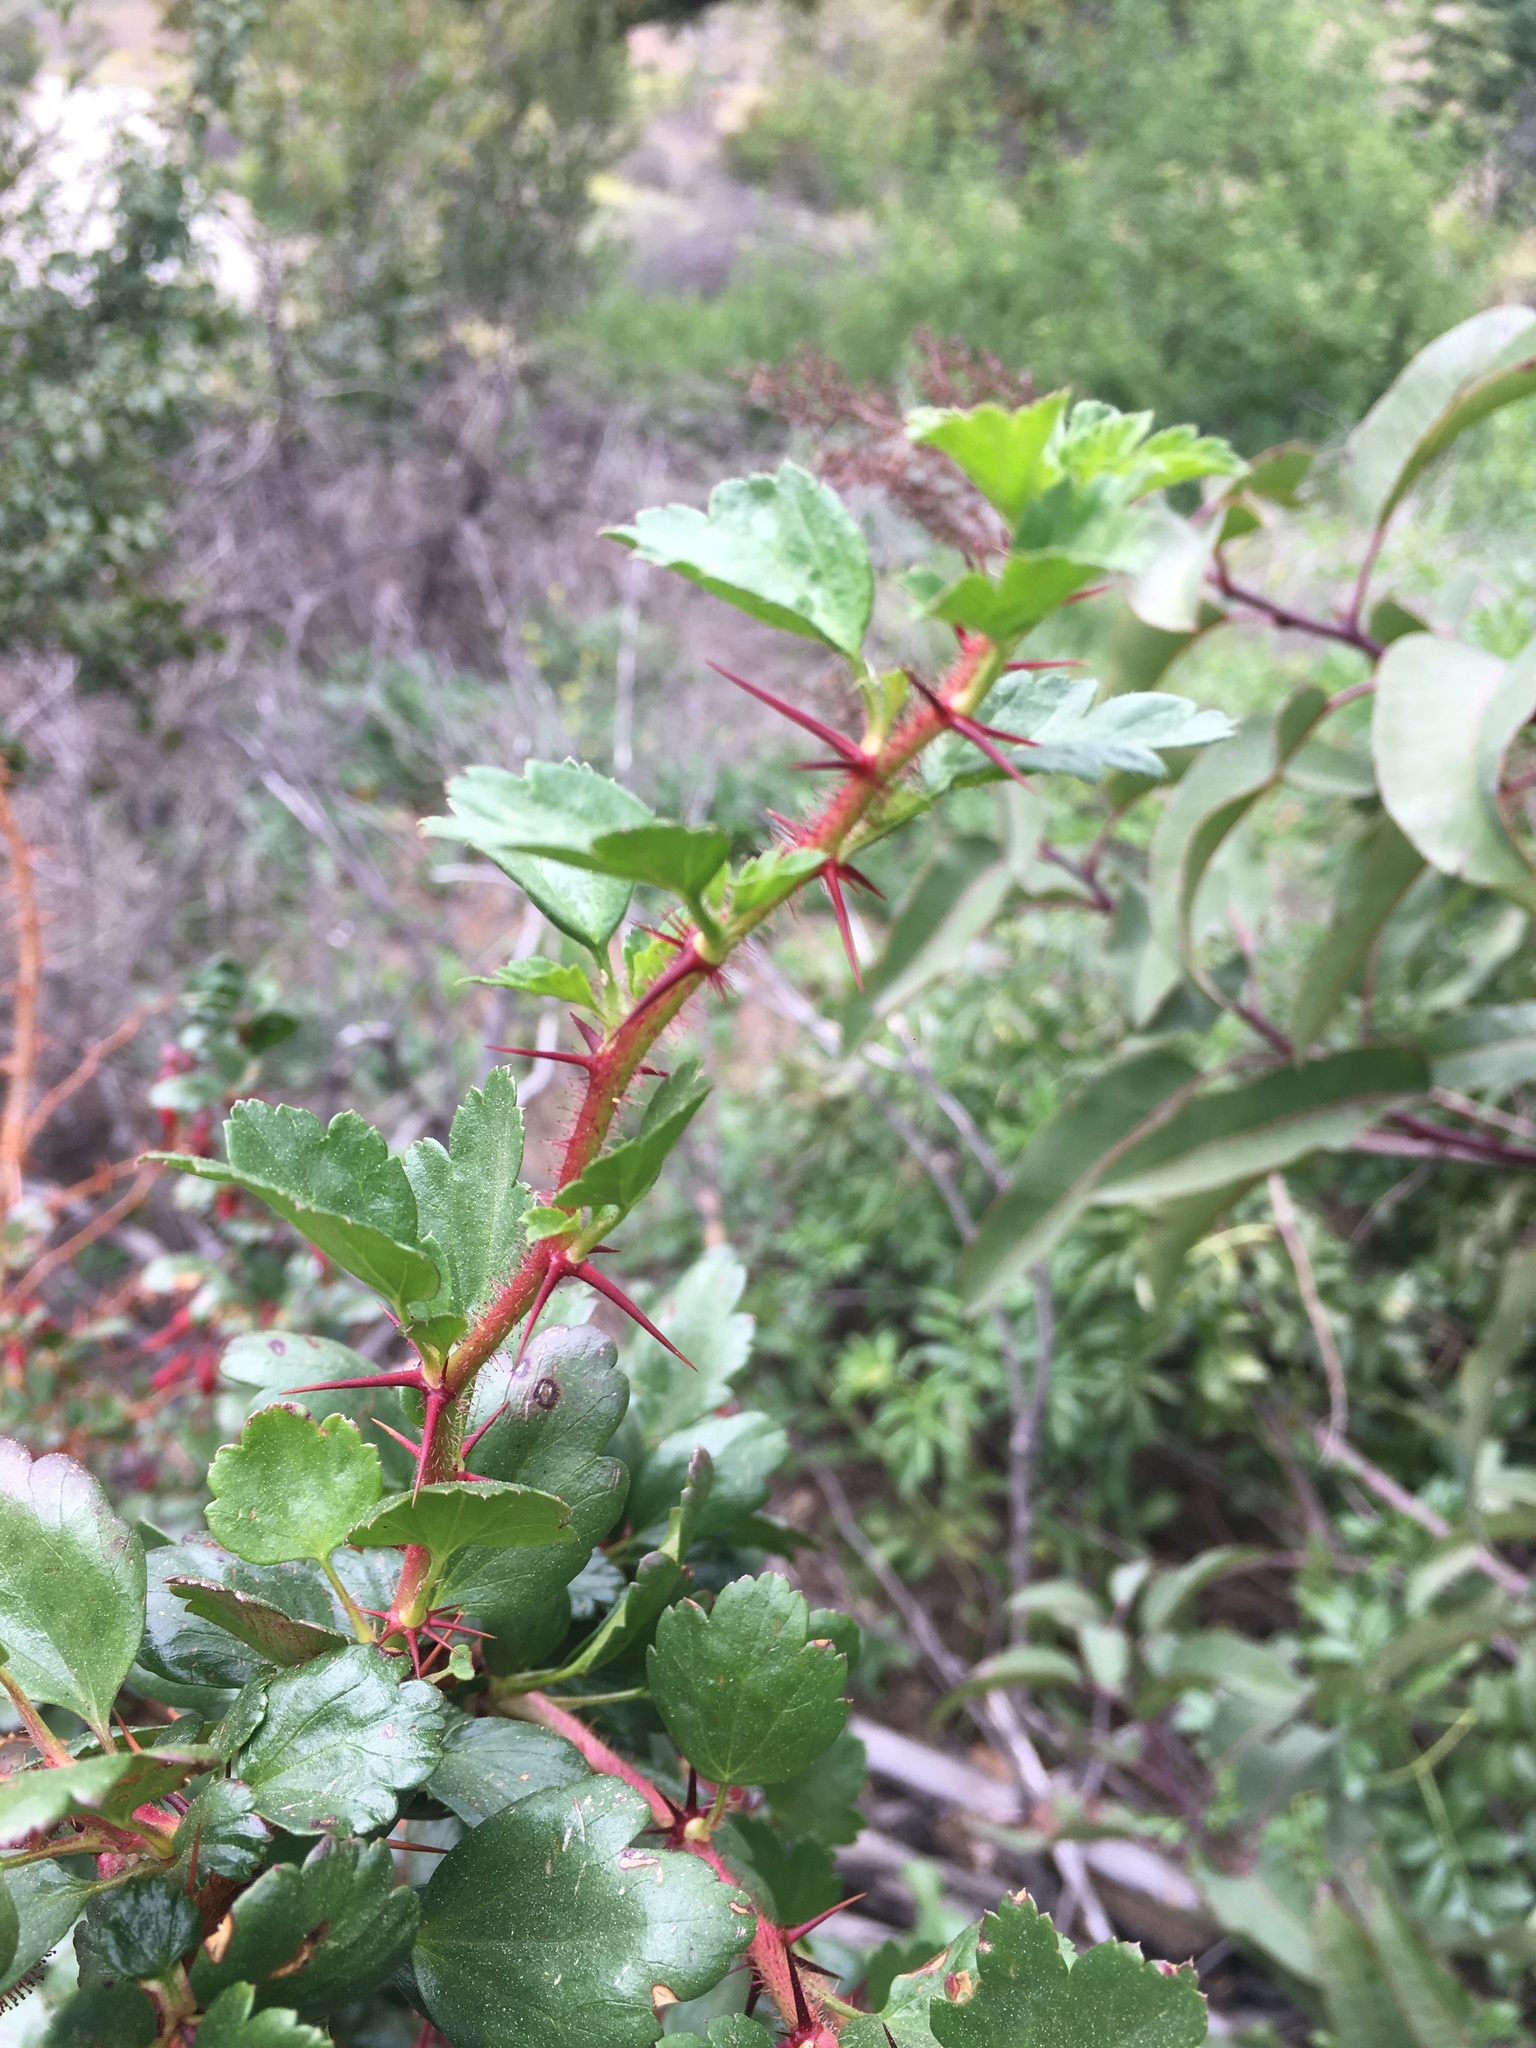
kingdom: Plantae
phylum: Tracheophyta
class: Magnoliopsida
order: Saxifragales
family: Grossulariaceae
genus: Ribes
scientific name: Ribes speciosum
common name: Fuchsia-flower gooseberry
